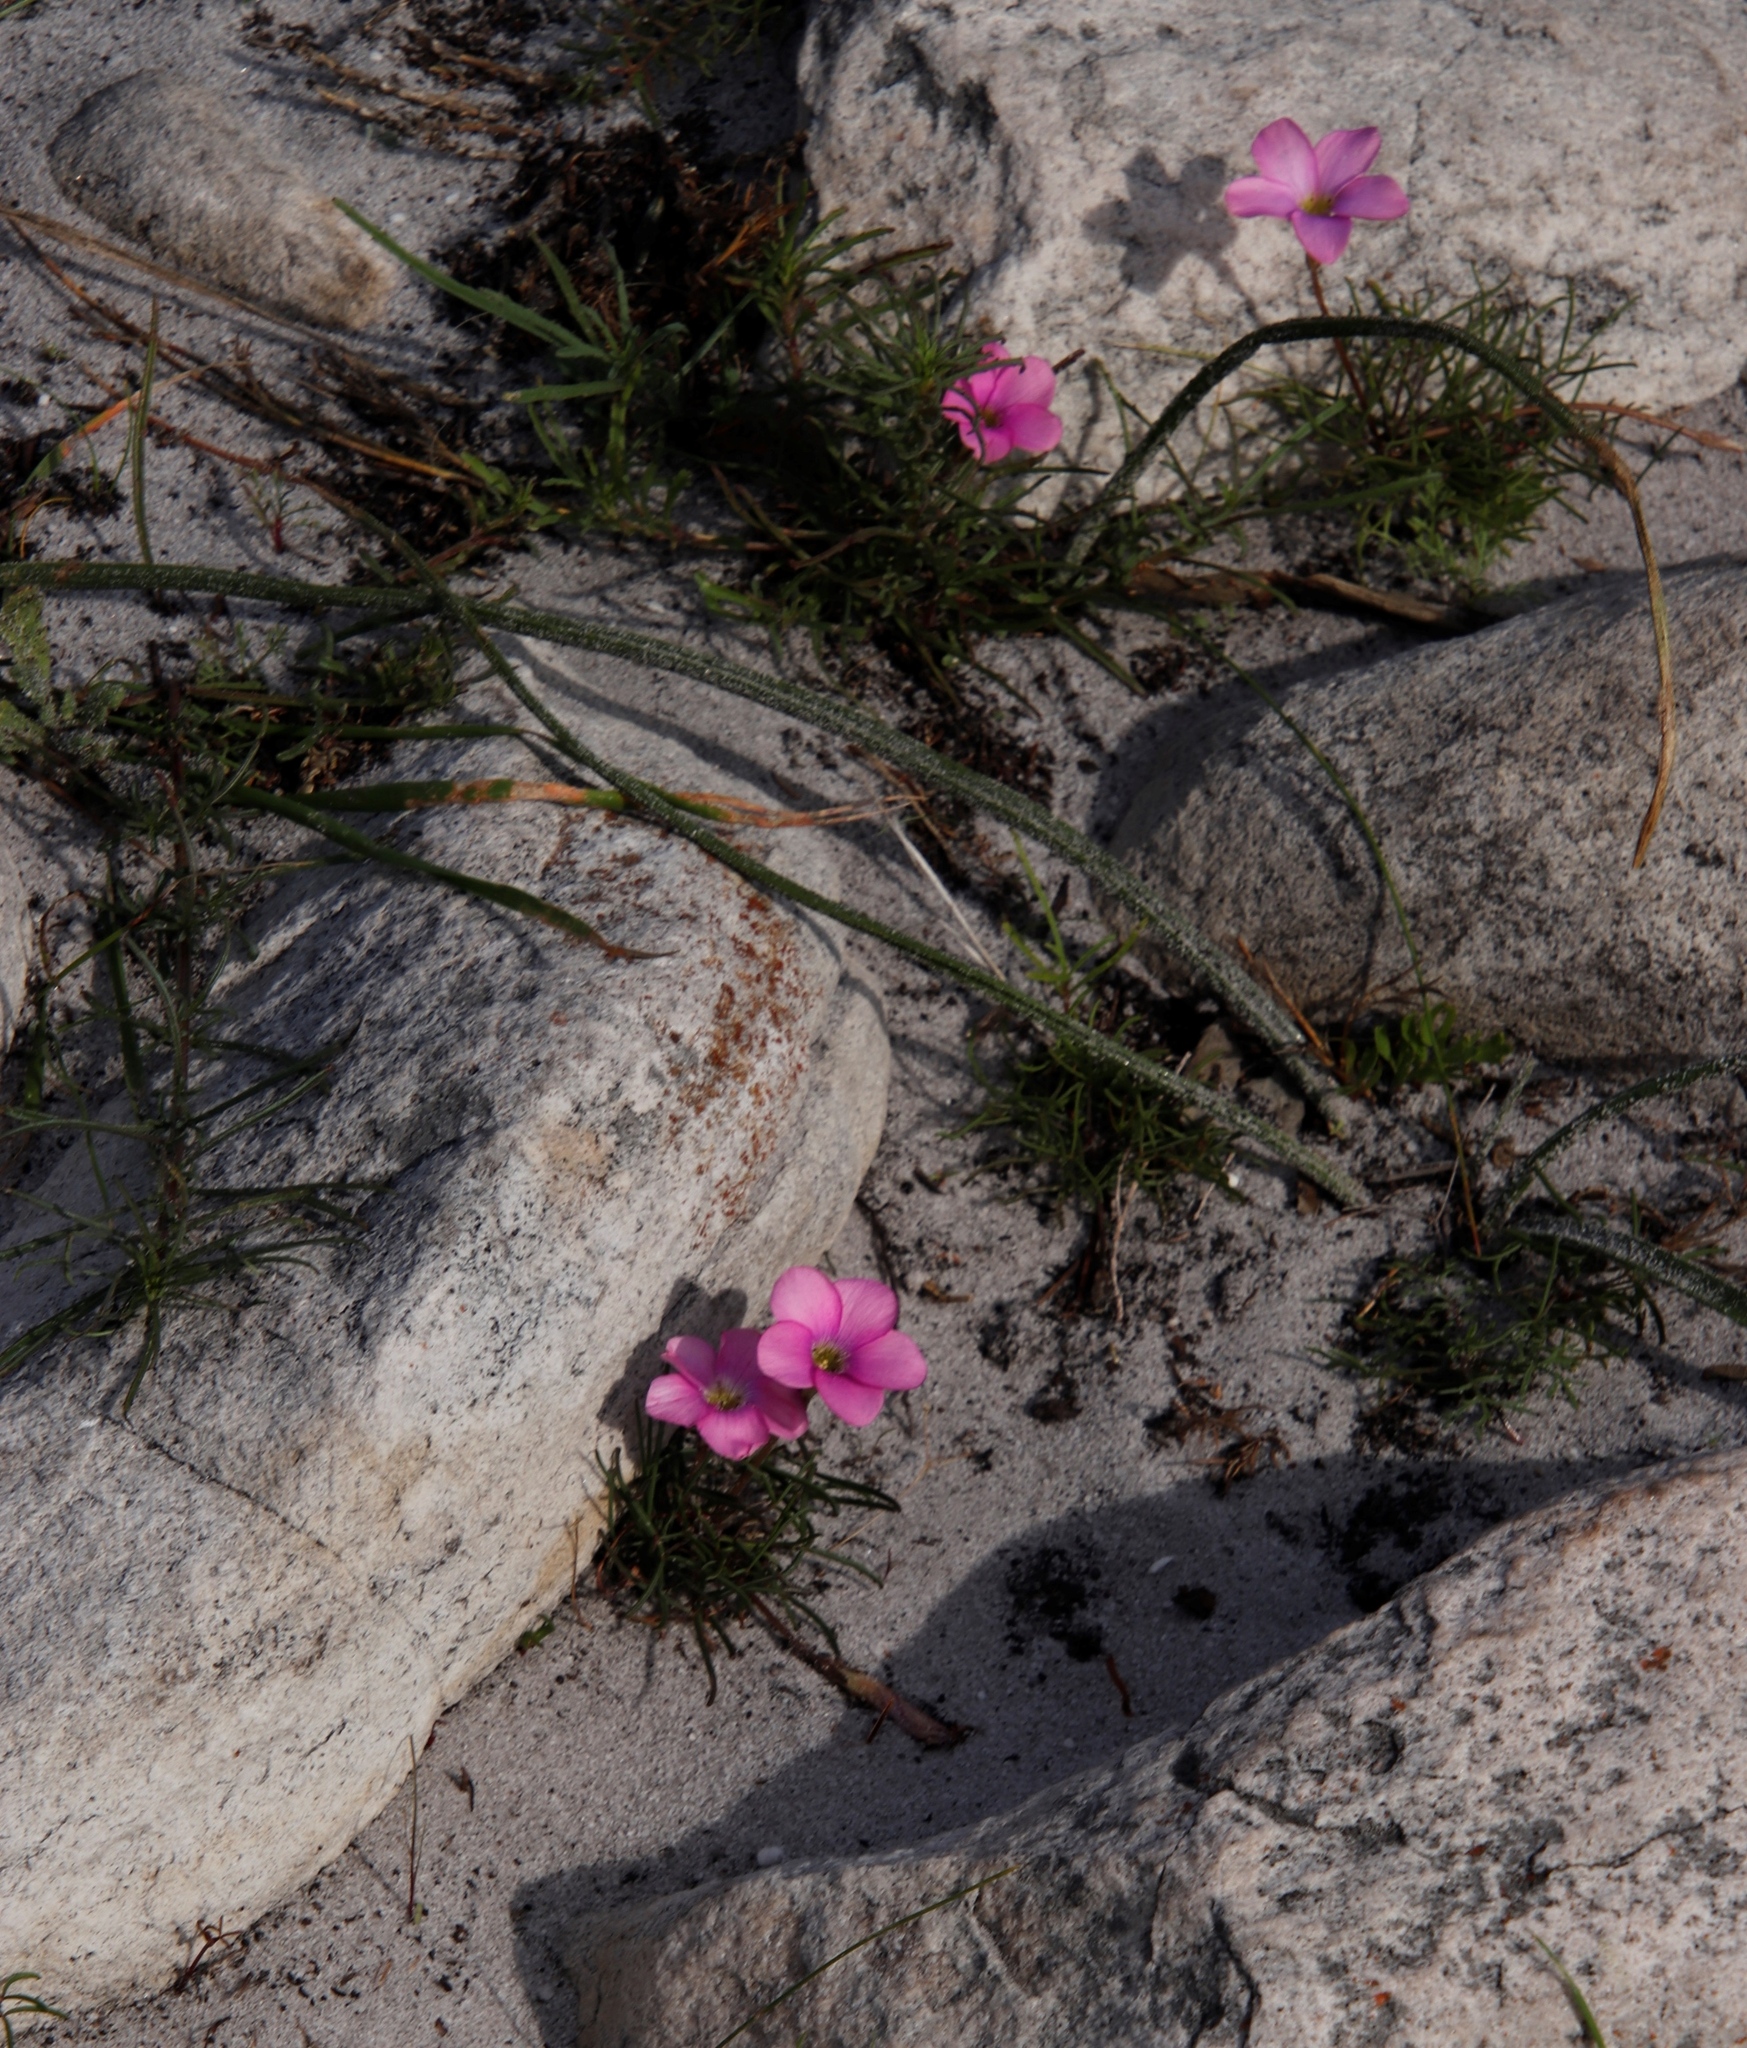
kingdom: Plantae
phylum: Tracheophyta
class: Magnoliopsida
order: Oxalidales
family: Oxalidaceae
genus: Oxalis
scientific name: Oxalis polyphylla
